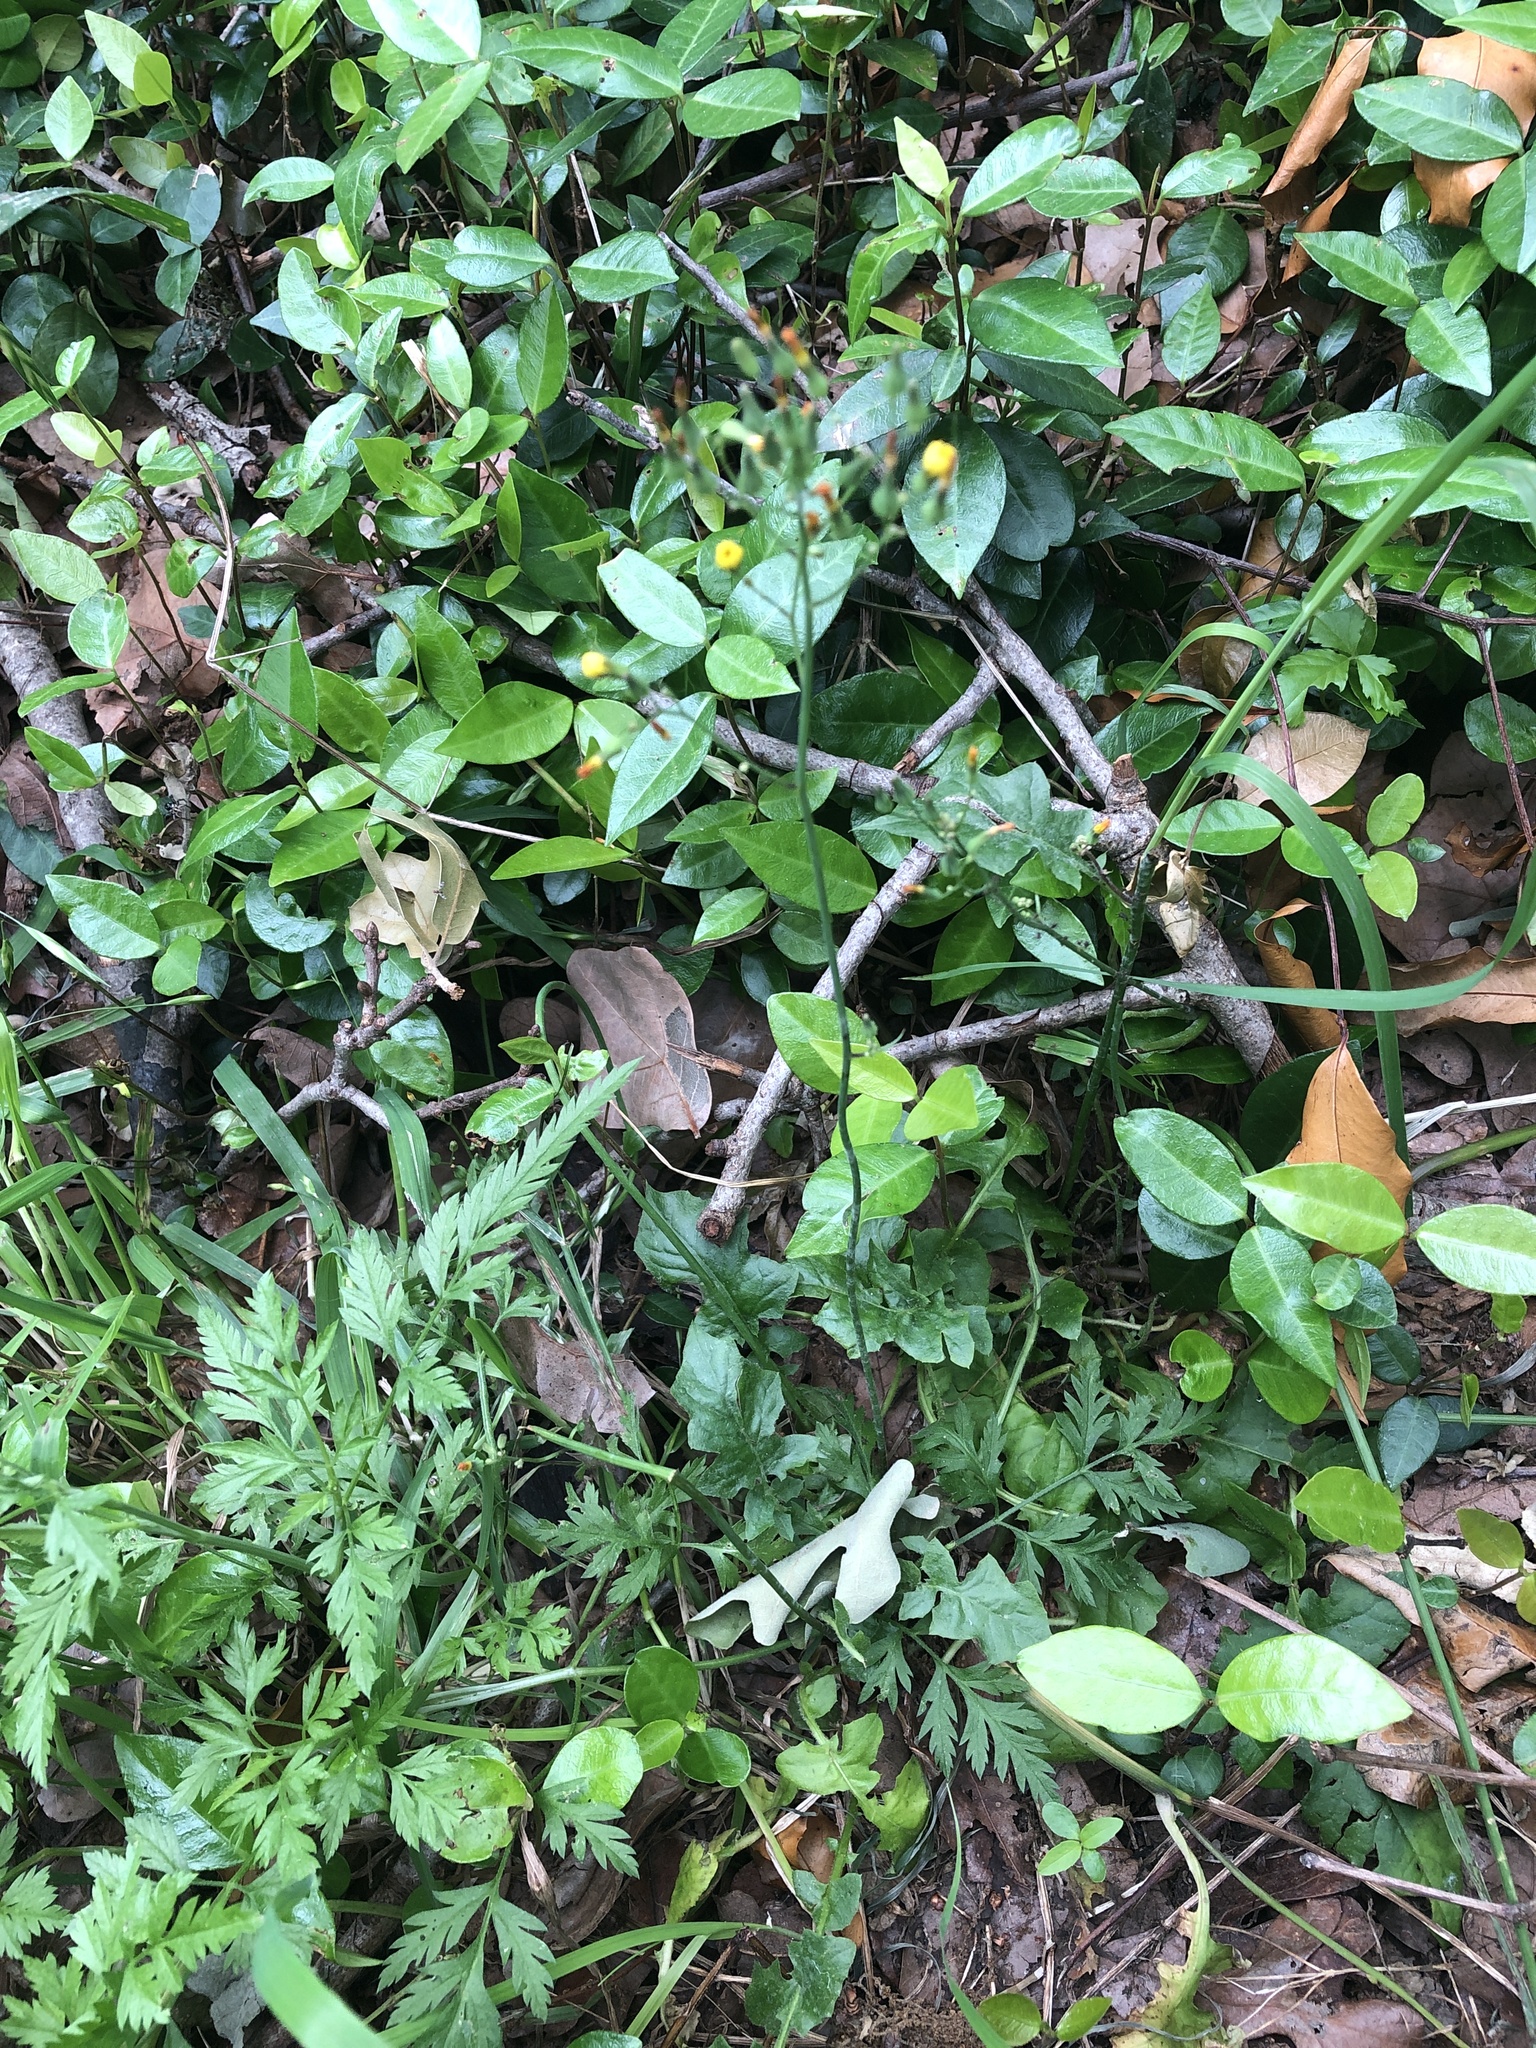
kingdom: Plantae
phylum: Tracheophyta
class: Magnoliopsida
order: Asterales
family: Asteraceae
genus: Youngia
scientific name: Youngia japonica
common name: Oriental false hawksbeard
